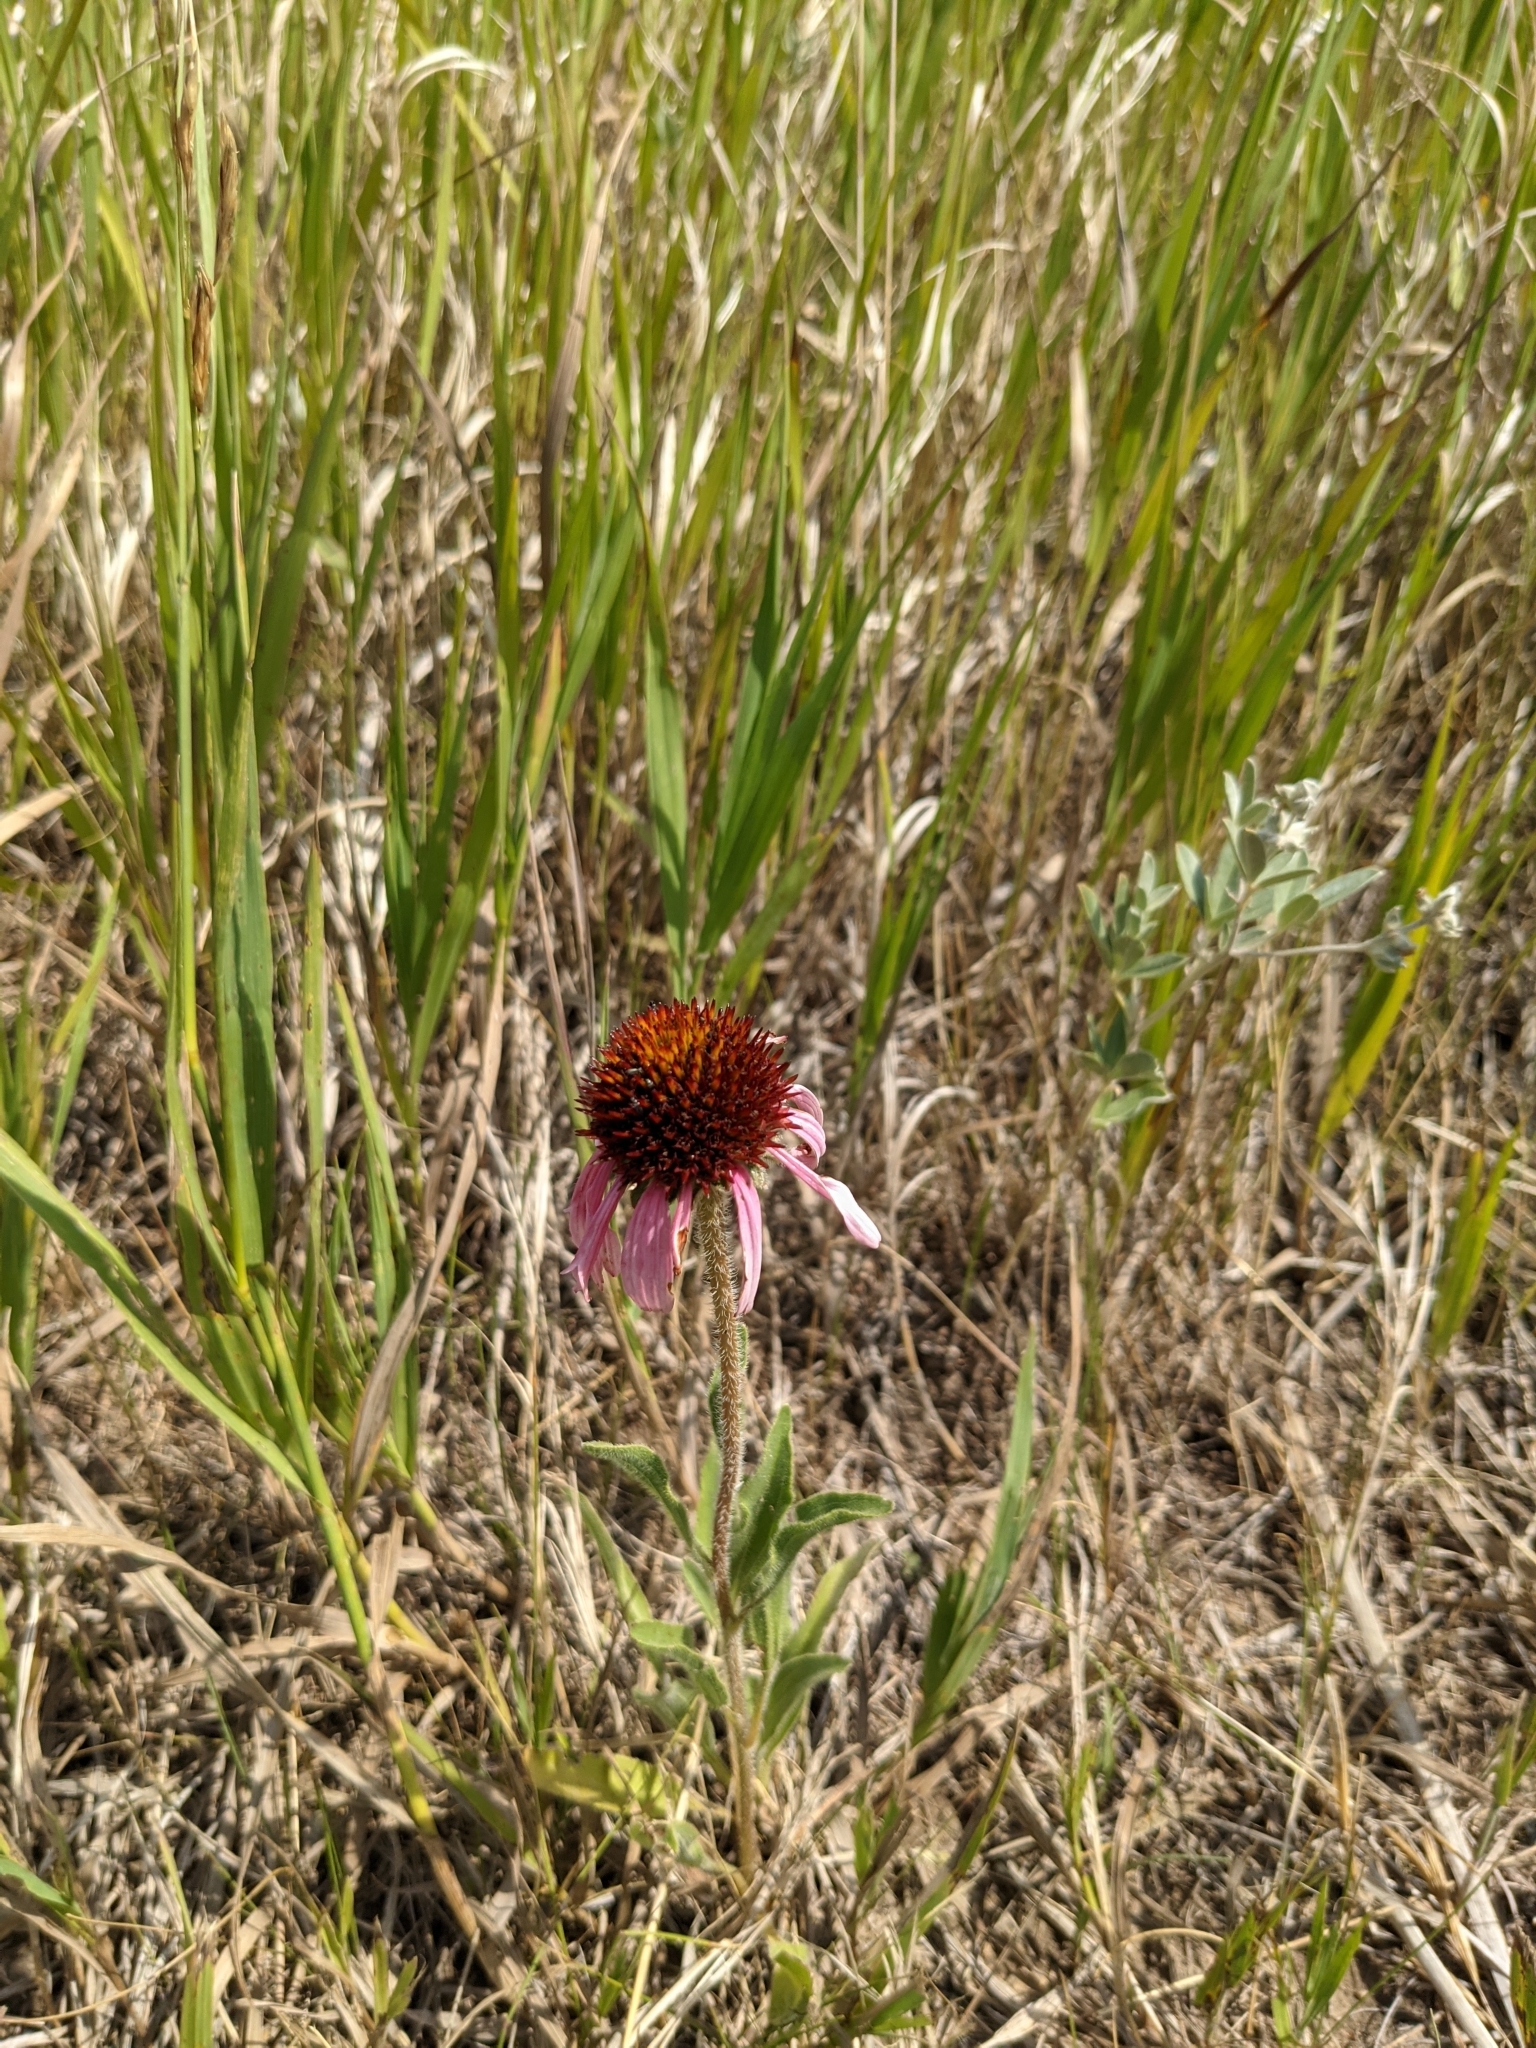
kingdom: Plantae
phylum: Tracheophyta
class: Magnoliopsida
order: Asterales
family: Asteraceae
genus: Echinacea
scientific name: Echinacea angustifolia
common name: Black-sampson echinacea
